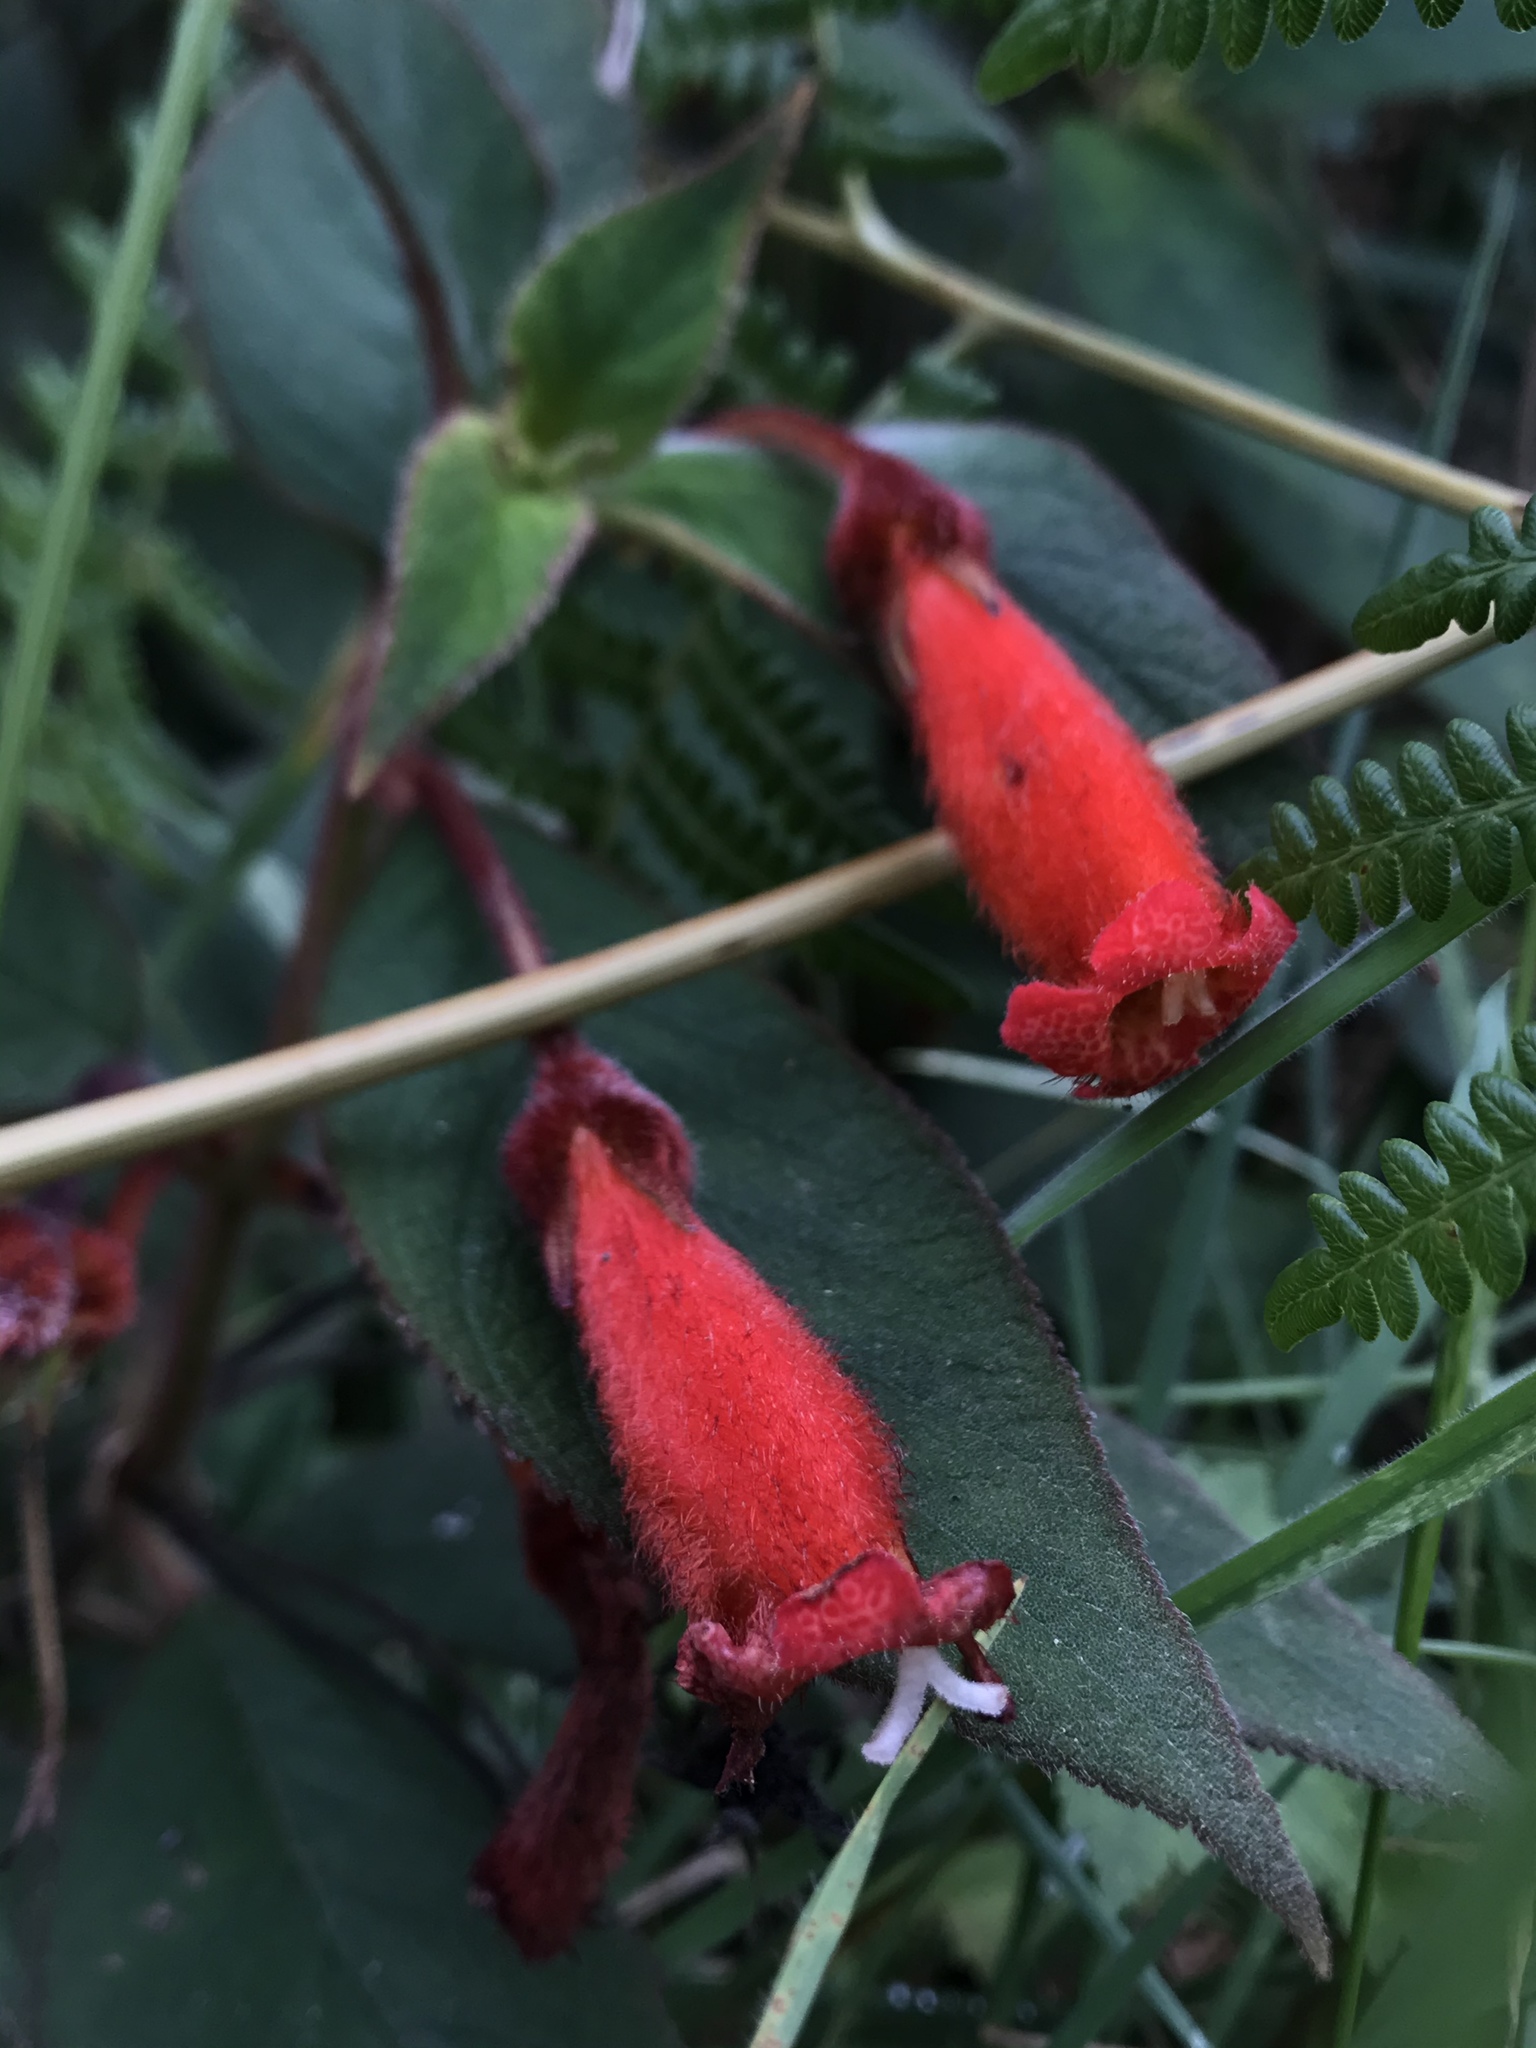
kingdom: Plantae
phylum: Tracheophyta
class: Magnoliopsida
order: Lamiales
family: Gesneriaceae
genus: Kohleria
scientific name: Kohleria hirsuta
